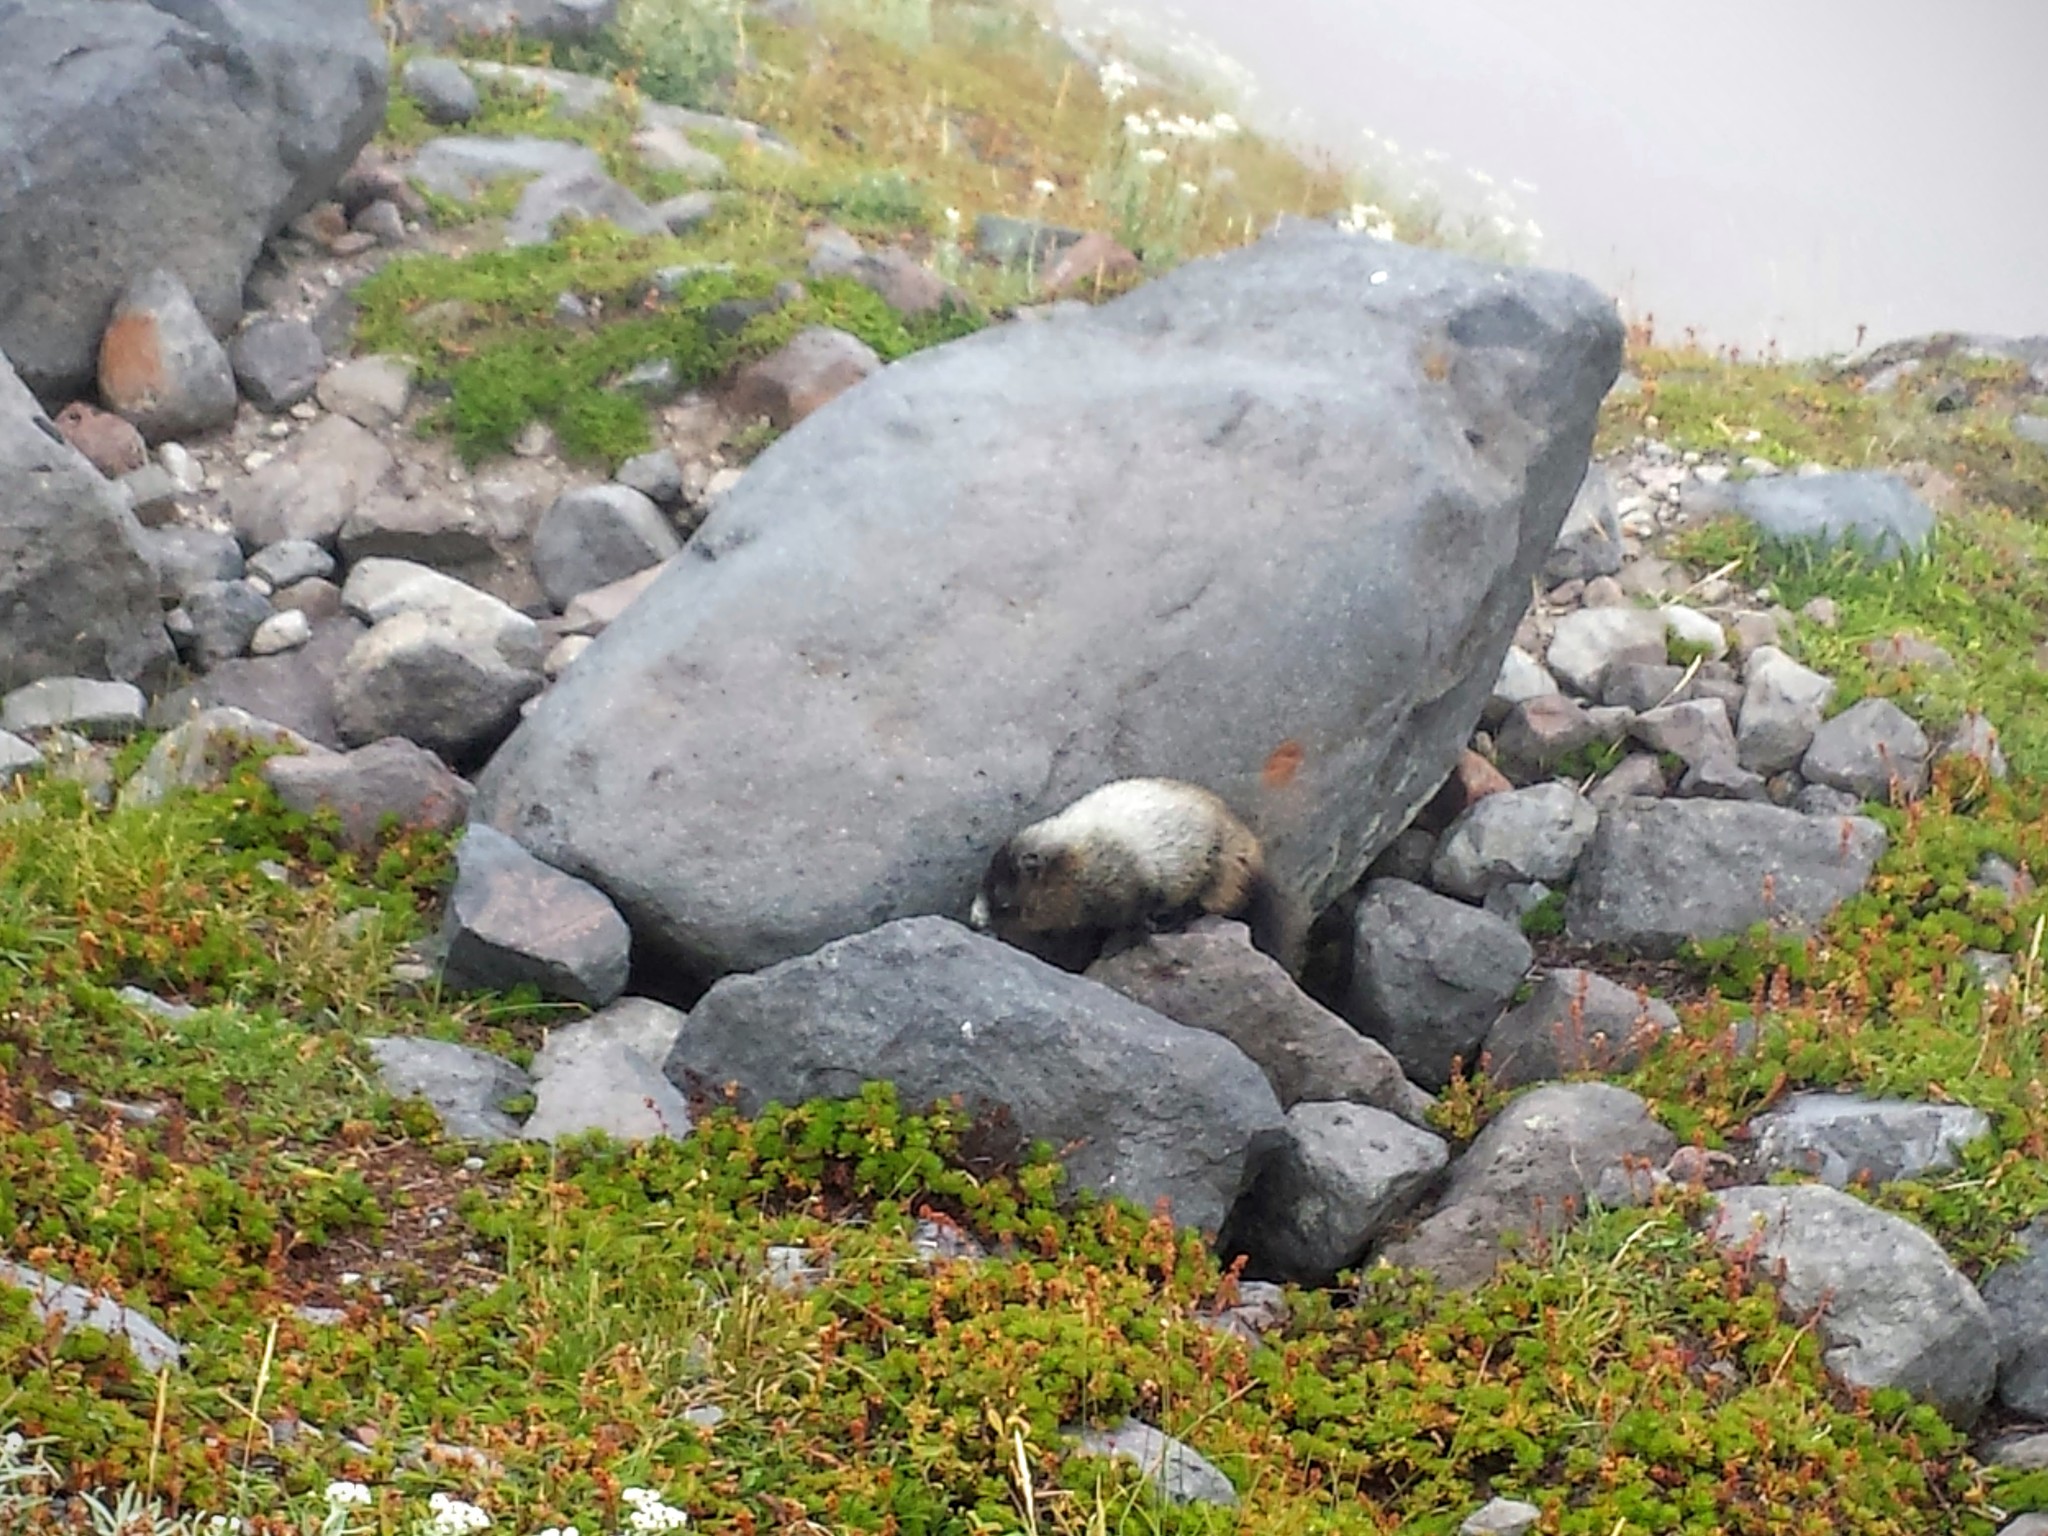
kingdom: Animalia
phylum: Chordata
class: Mammalia
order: Rodentia
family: Sciuridae
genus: Marmota
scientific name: Marmota caligata
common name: Hoary marmot
